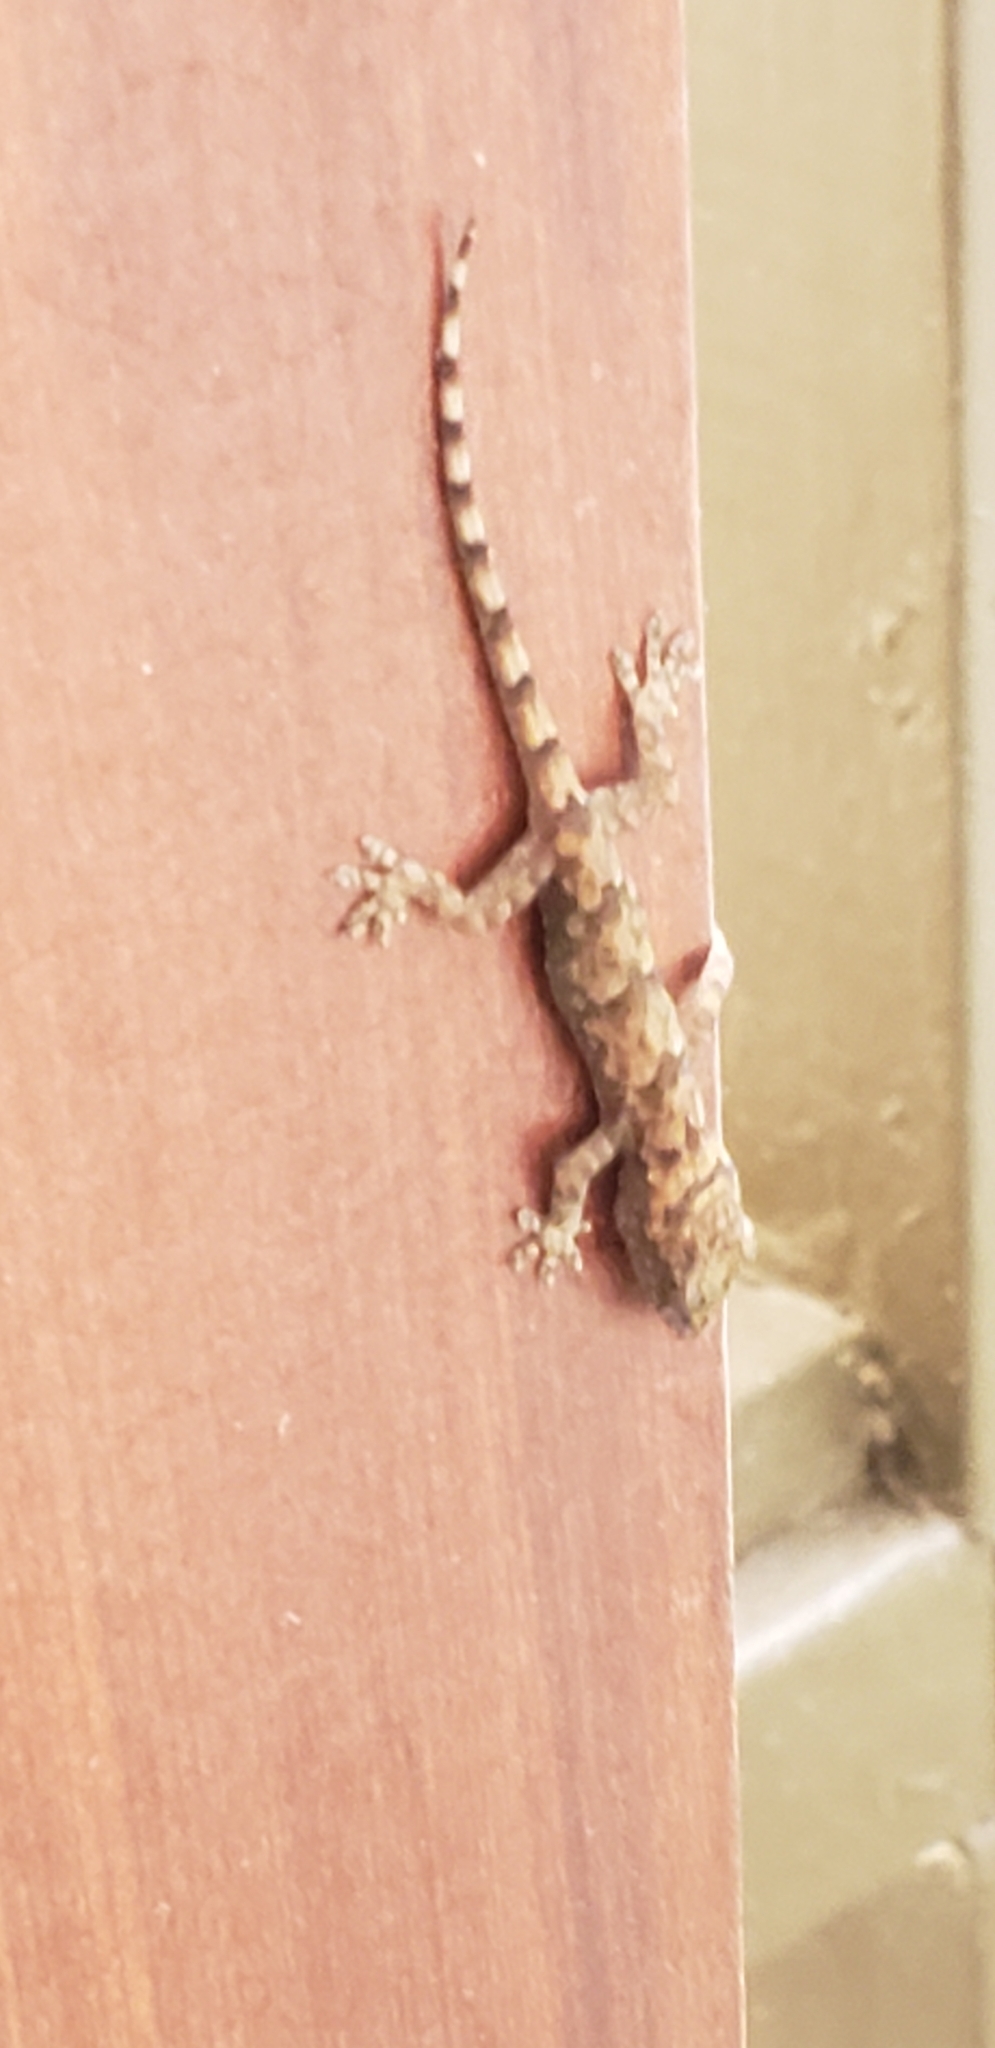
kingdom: Animalia
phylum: Chordata
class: Squamata
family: Gekkonidae
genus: Hemidactylus
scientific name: Hemidactylus mabouia
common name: House gecko
